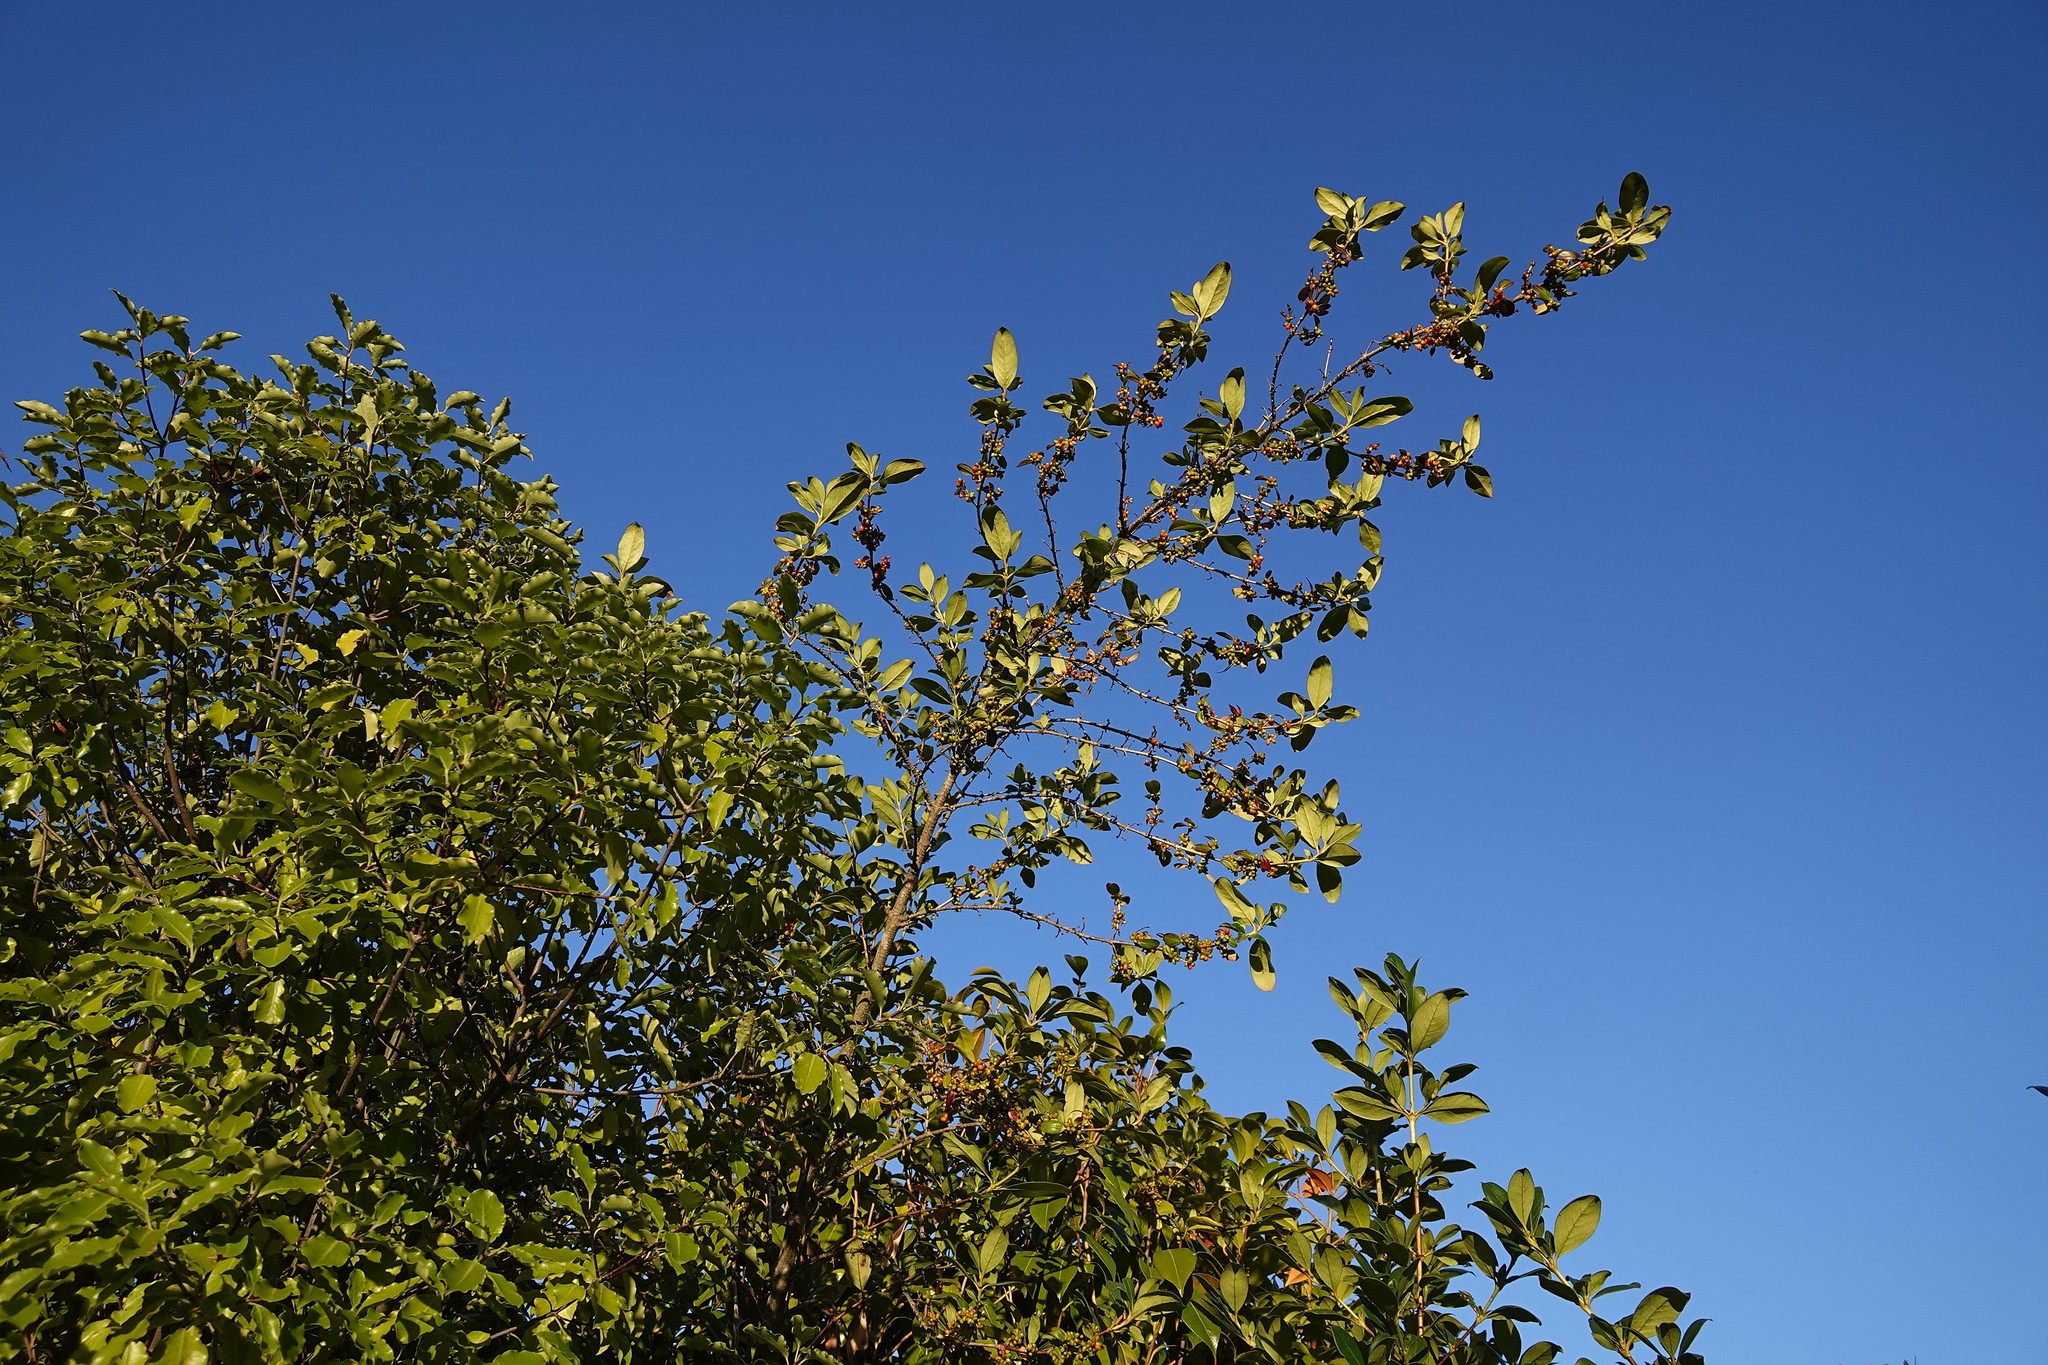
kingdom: Plantae
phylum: Tracheophyta
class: Magnoliopsida
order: Gentianales
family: Rubiaceae
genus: Coprosma
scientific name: Coprosma robusta
